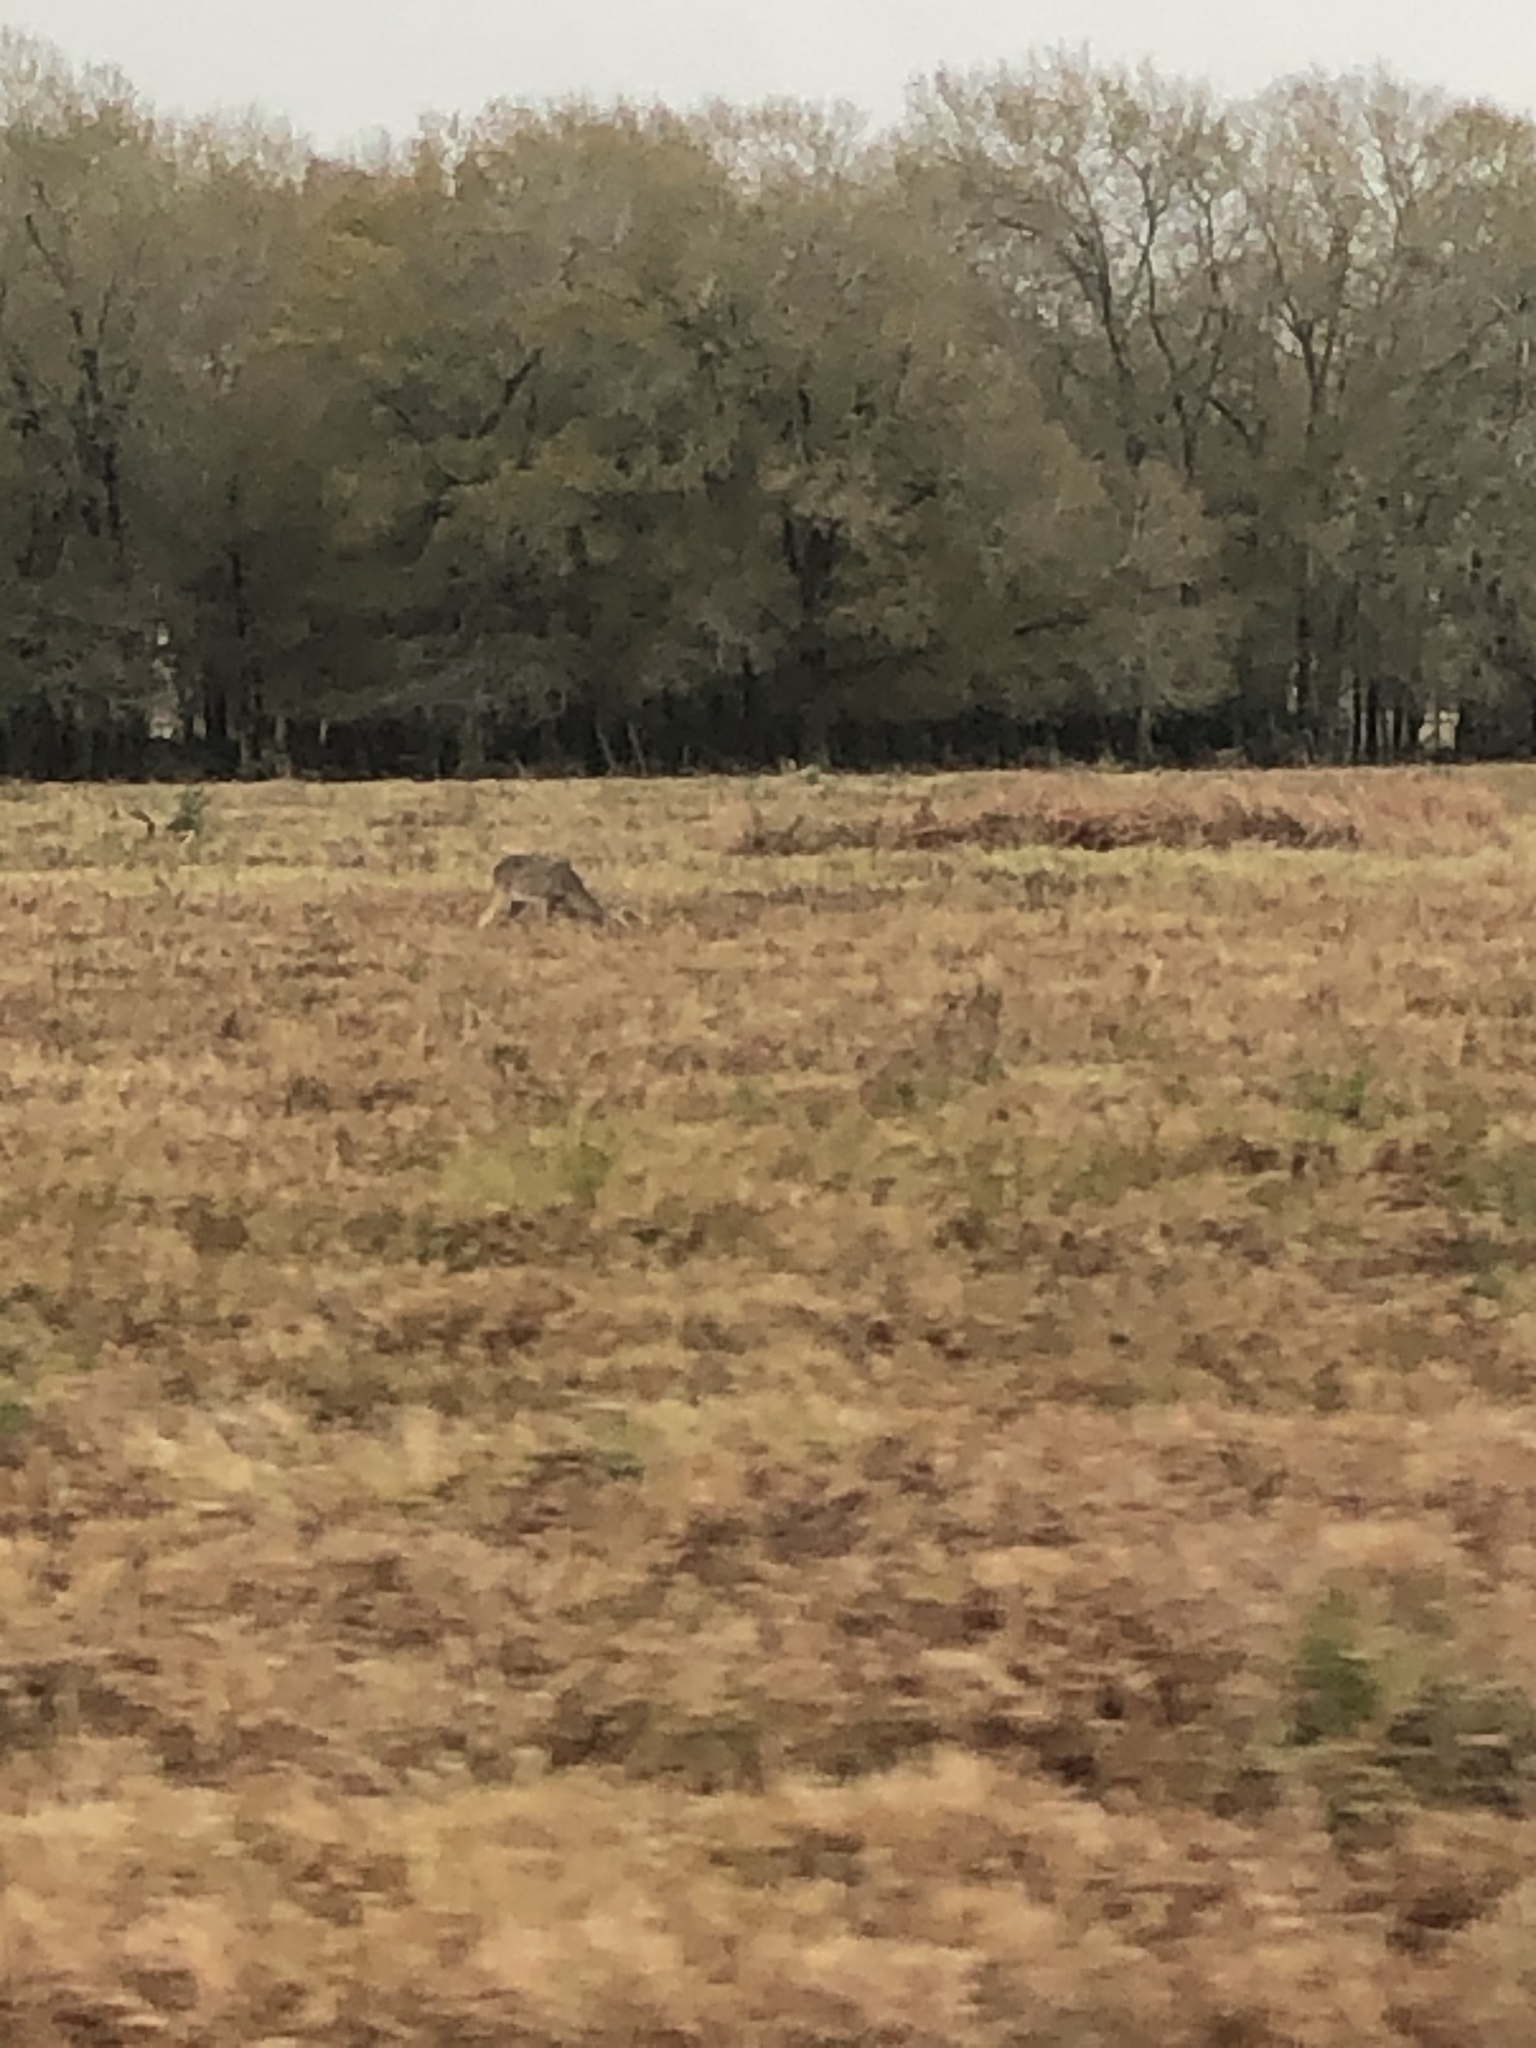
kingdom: Animalia
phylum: Chordata
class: Mammalia
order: Artiodactyla
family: Cervidae
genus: Odocoileus
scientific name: Odocoileus virginianus
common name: White-tailed deer
